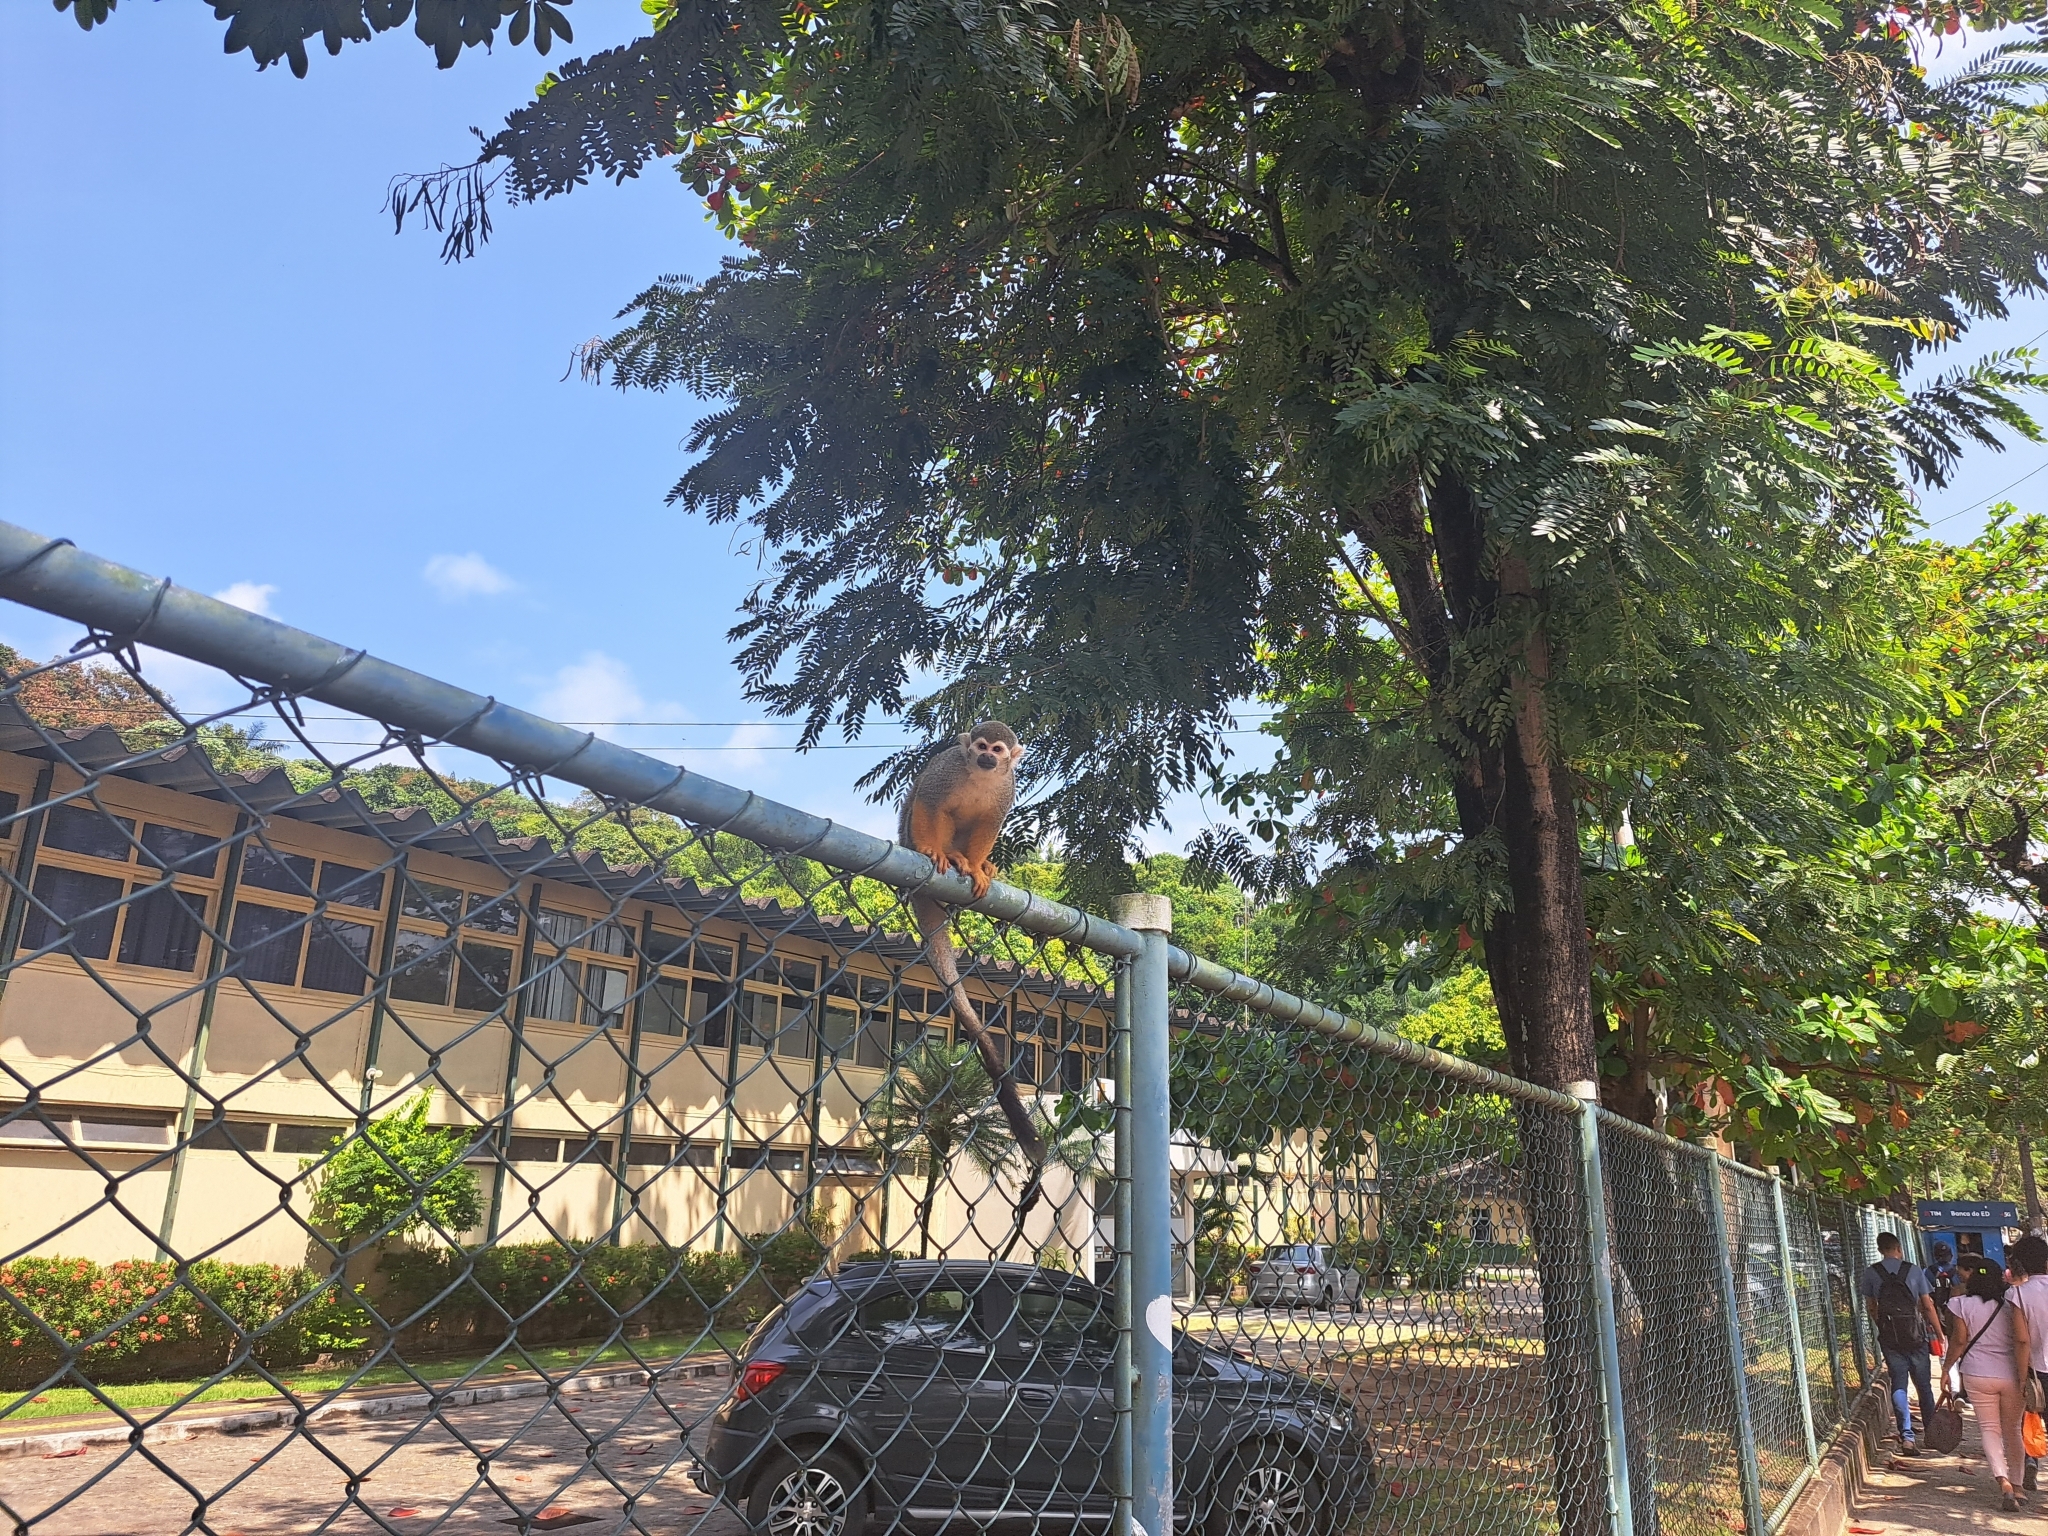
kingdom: Animalia
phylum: Chordata
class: Mammalia
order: Primates
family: Cebidae
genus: Saimiri
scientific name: Saimiri sciureus
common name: Common squirrel monkey
